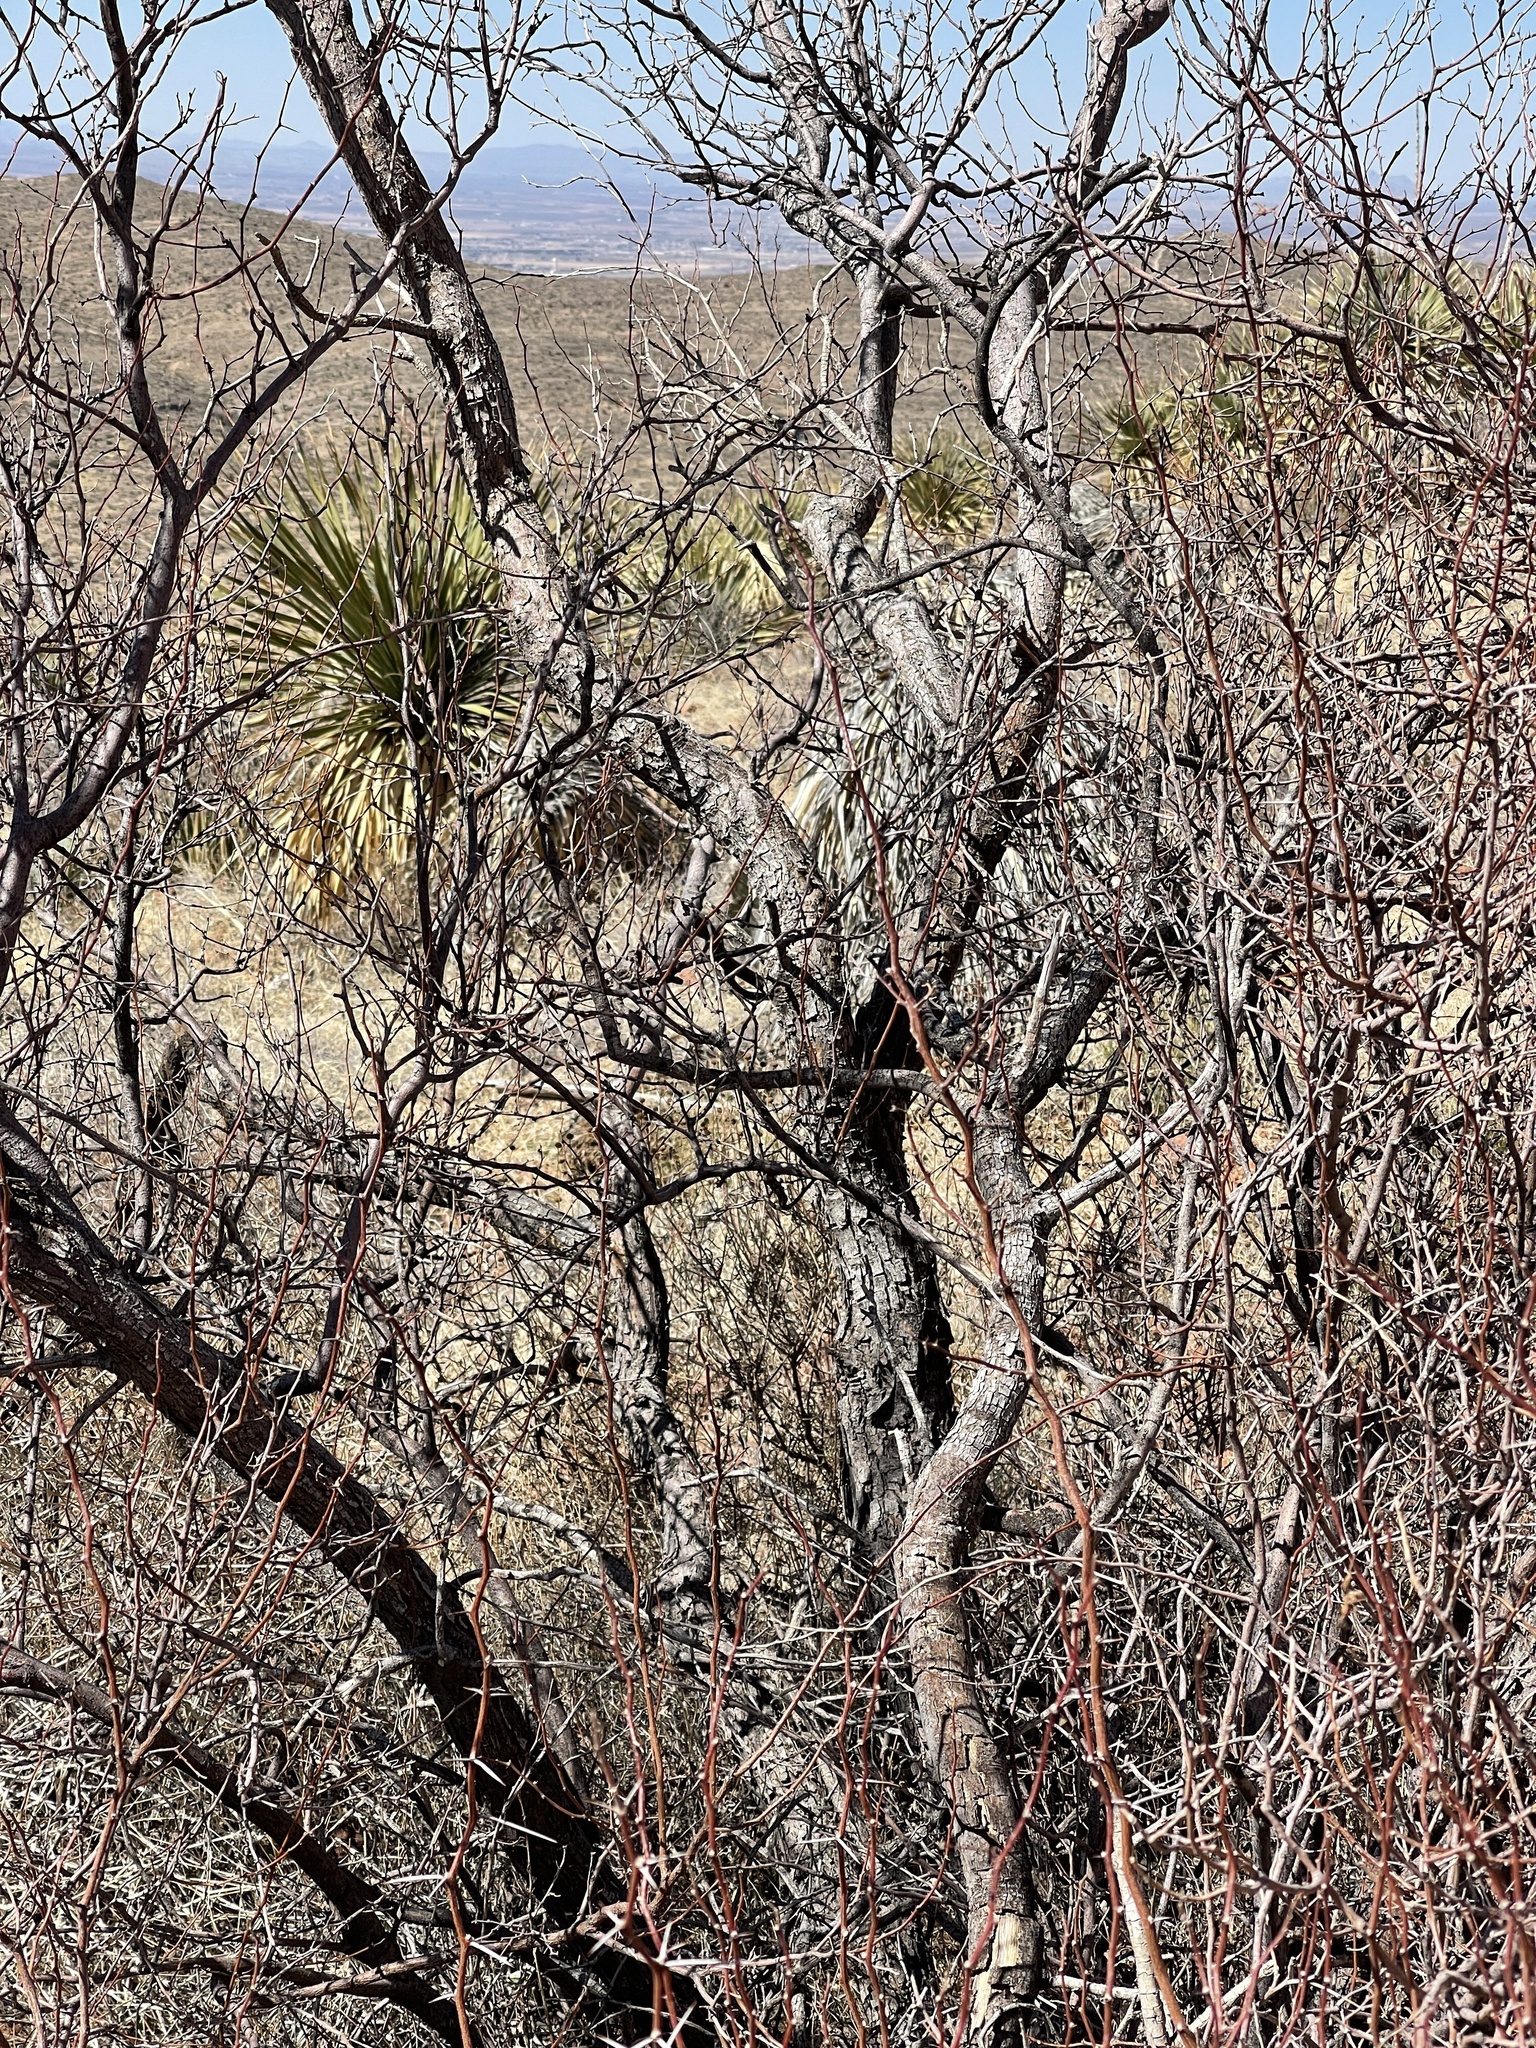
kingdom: Plantae
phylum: Tracheophyta
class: Magnoliopsida
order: Fabales
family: Fabaceae
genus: Vachellia
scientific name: Vachellia constricta
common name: Mescat acacia
